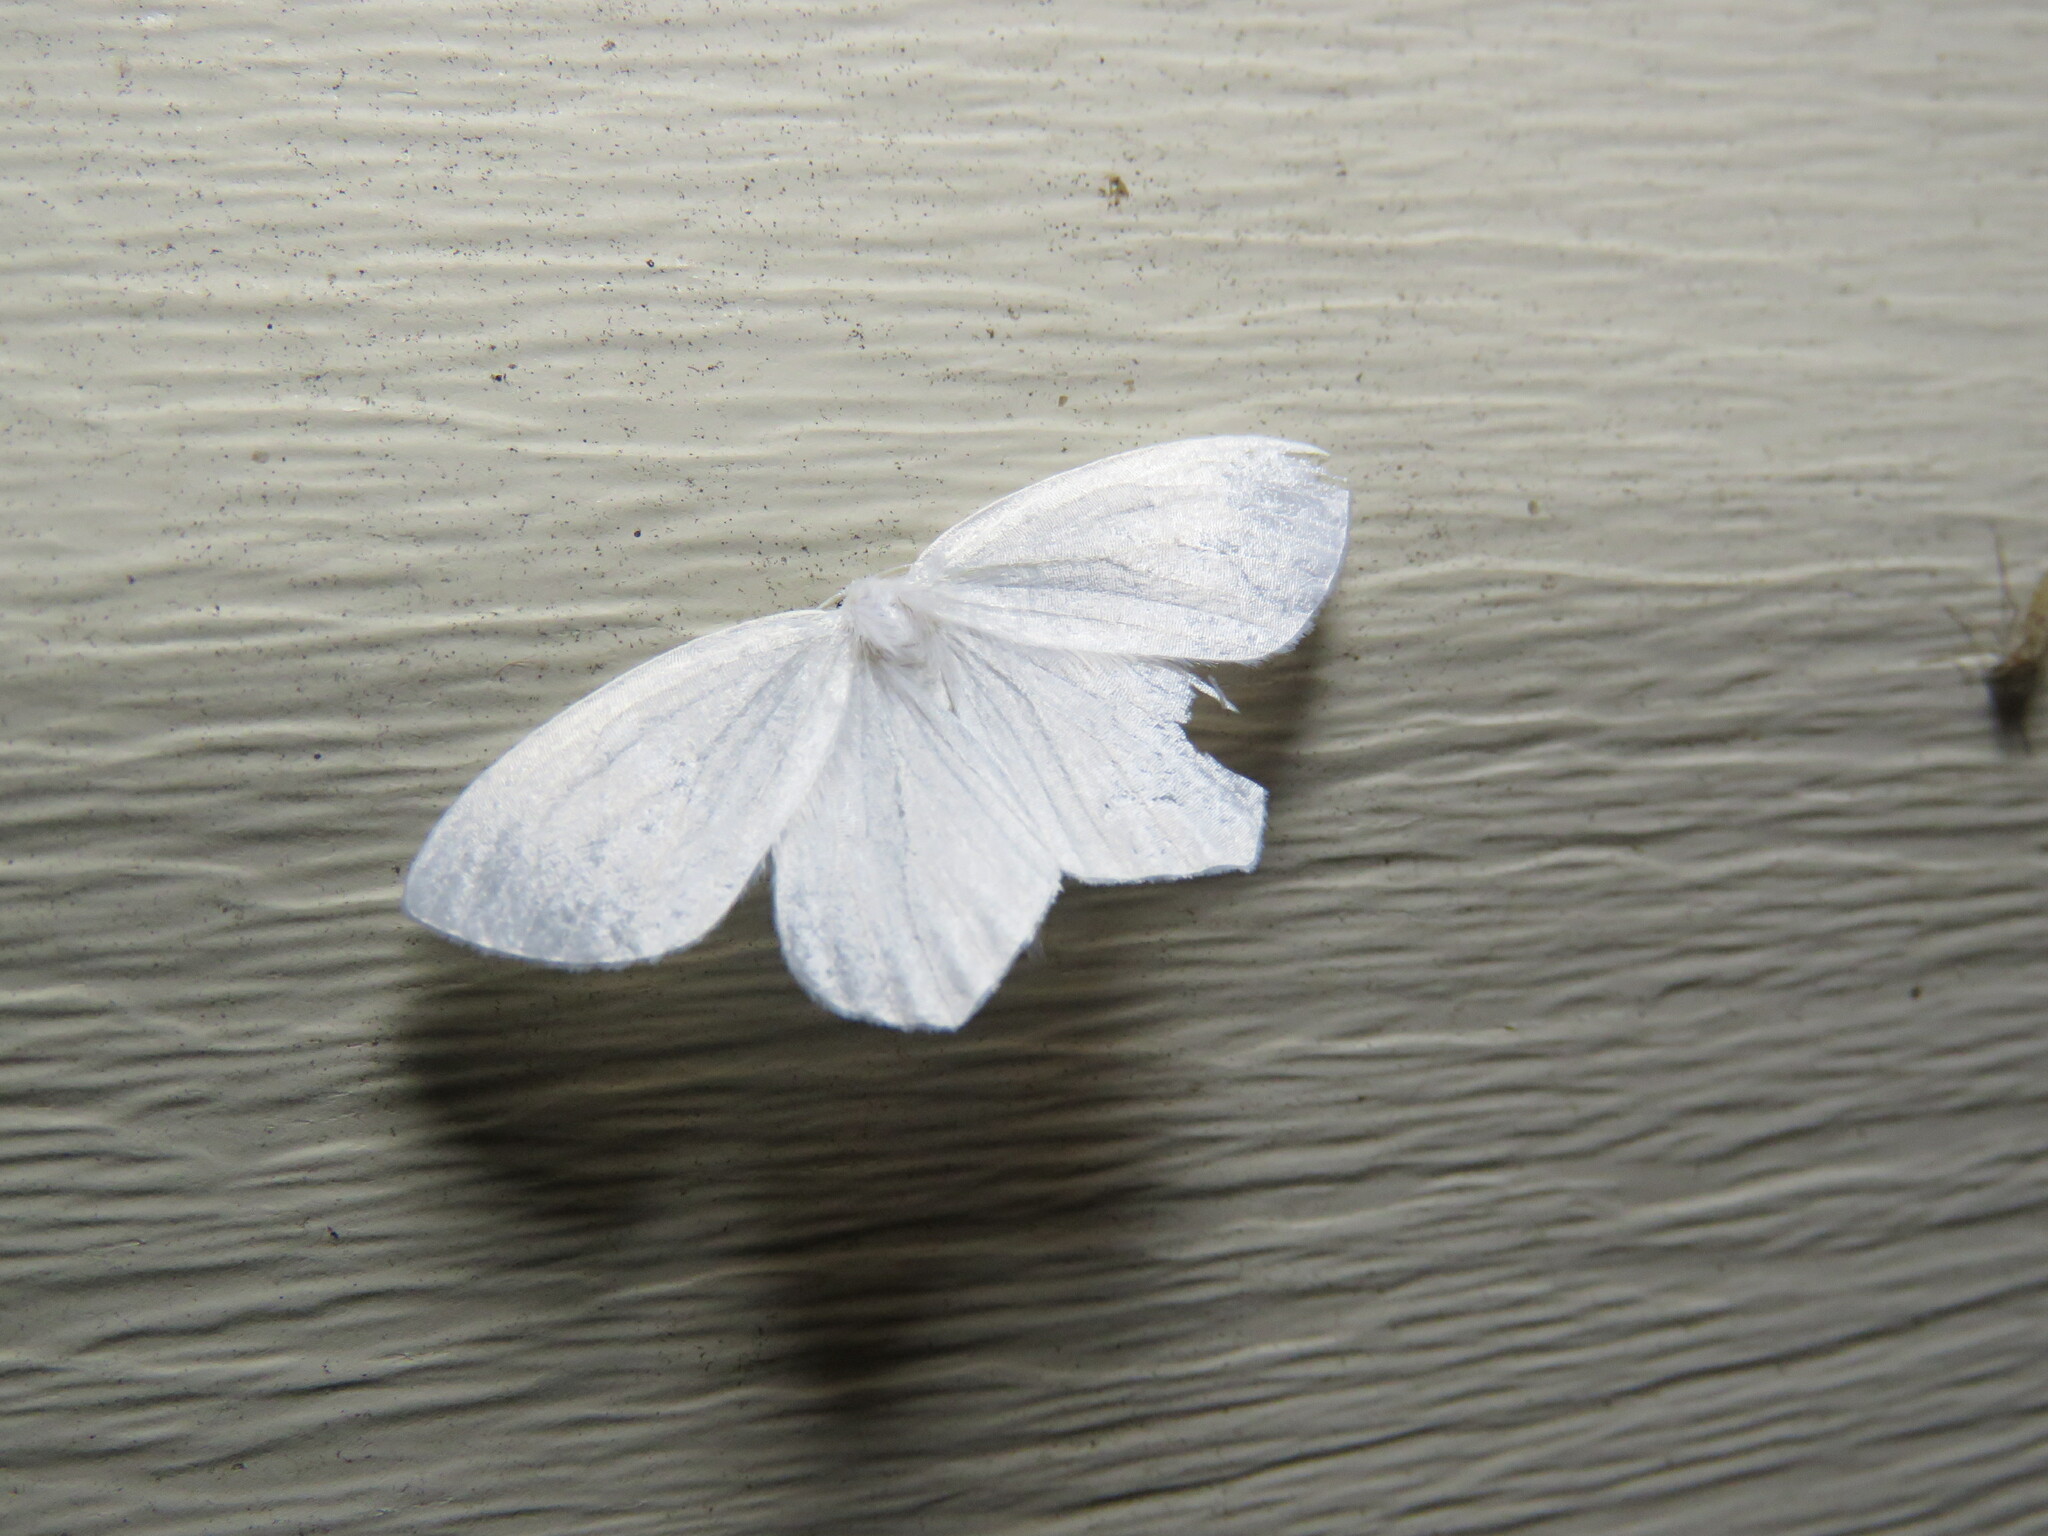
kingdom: Animalia
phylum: Arthropoda
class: Insecta
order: Lepidoptera
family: Geometridae
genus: Eugonobapta
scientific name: Eugonobapta nivosaria
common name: Snowy geometer
